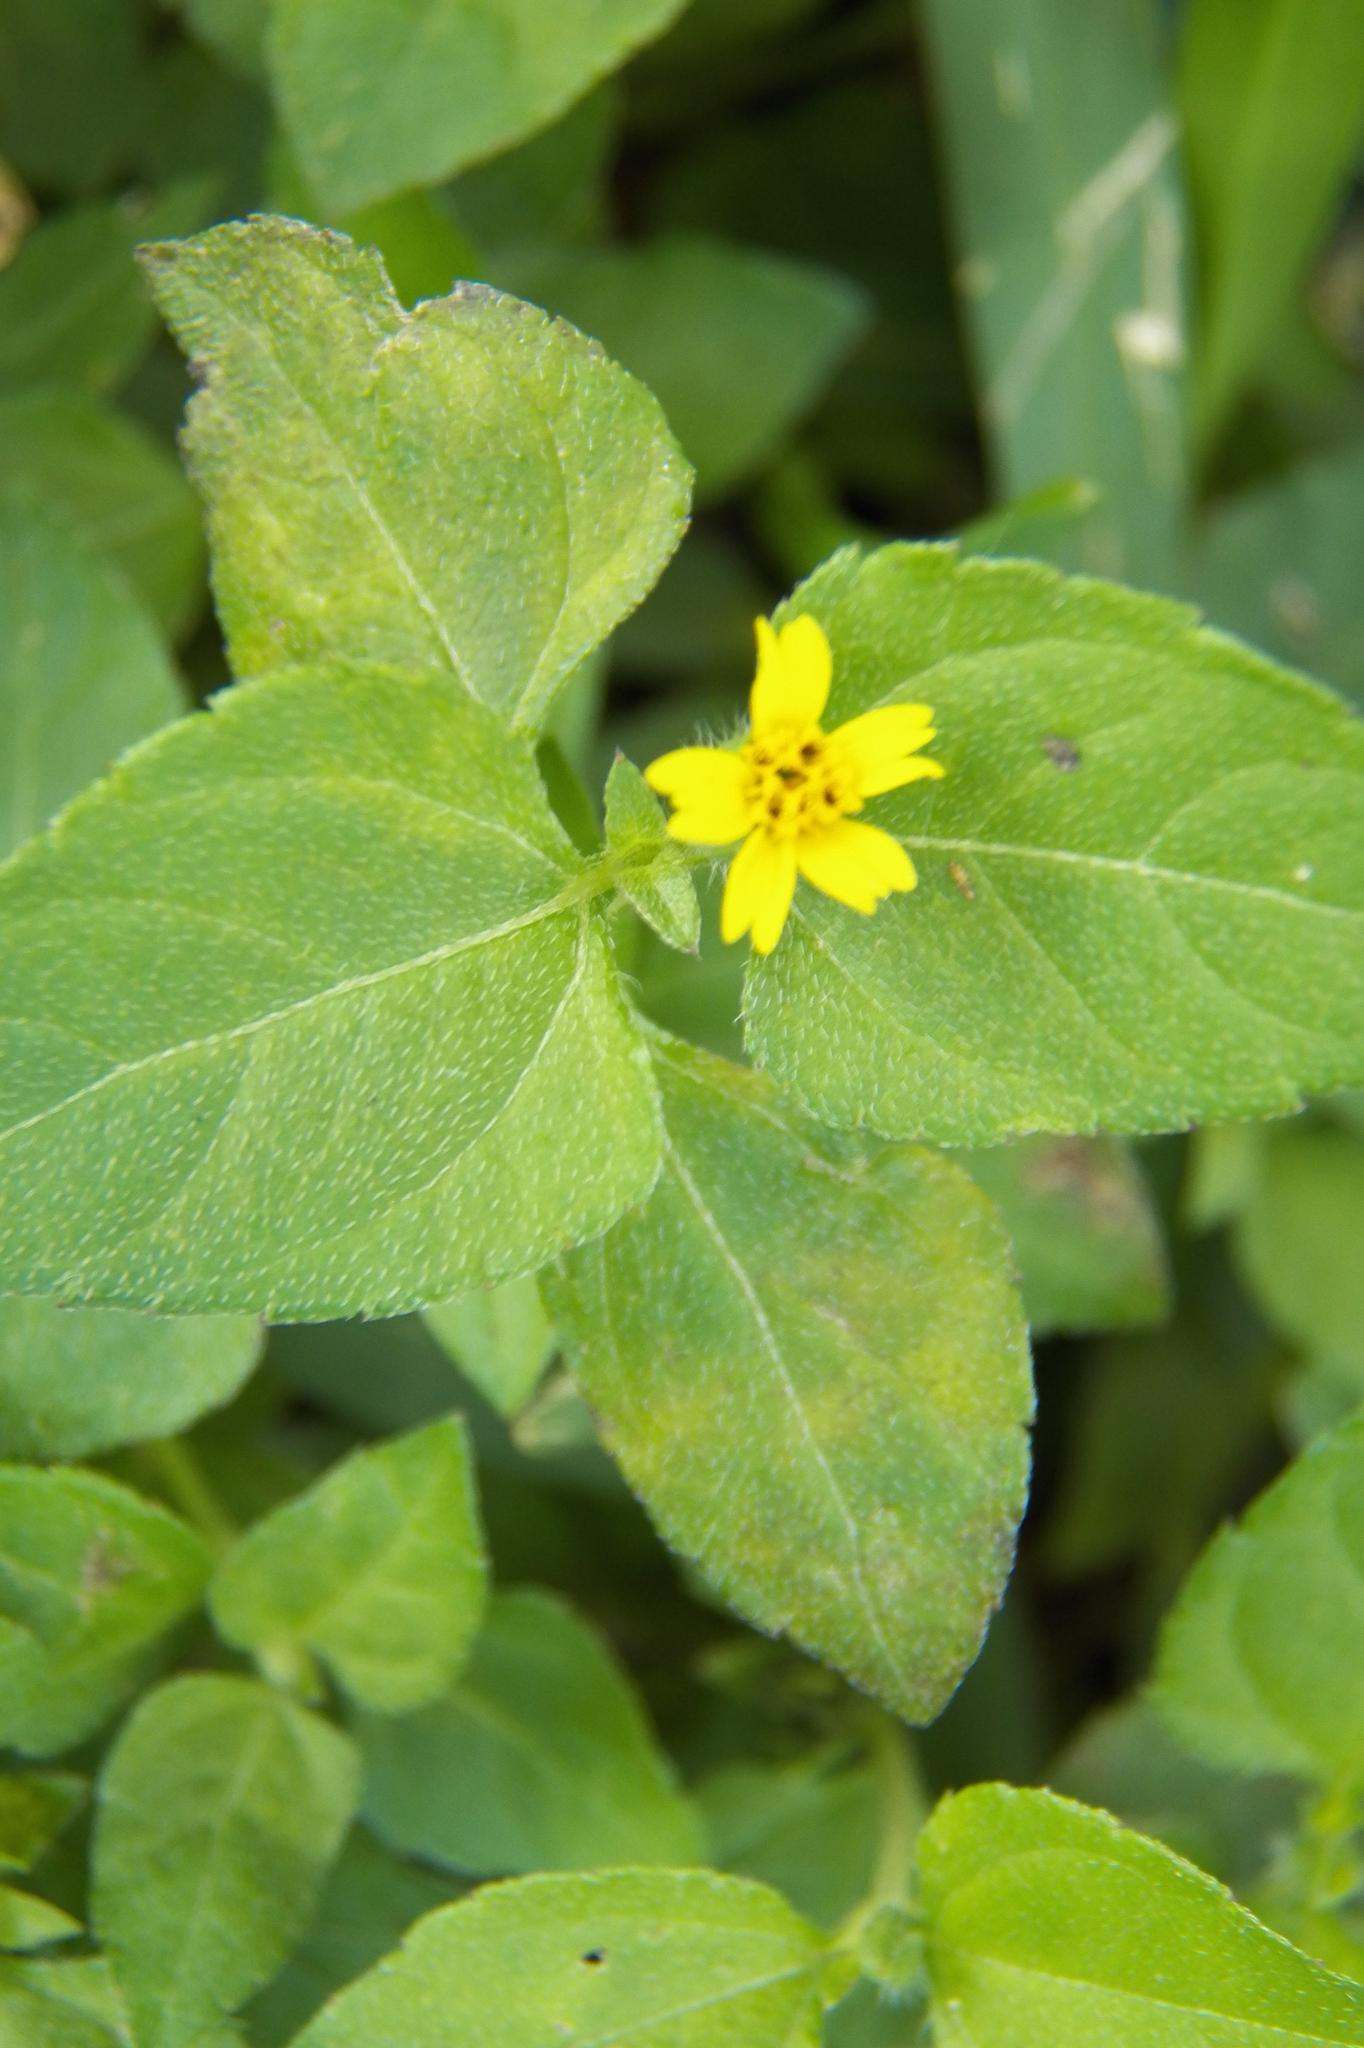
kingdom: Plantae
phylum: Tracheophyta
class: Magnoliopsida
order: Asterales
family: Asteraceae
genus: Calyptocarpus
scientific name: Calyptocarpus vialis
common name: Straggler daisy
